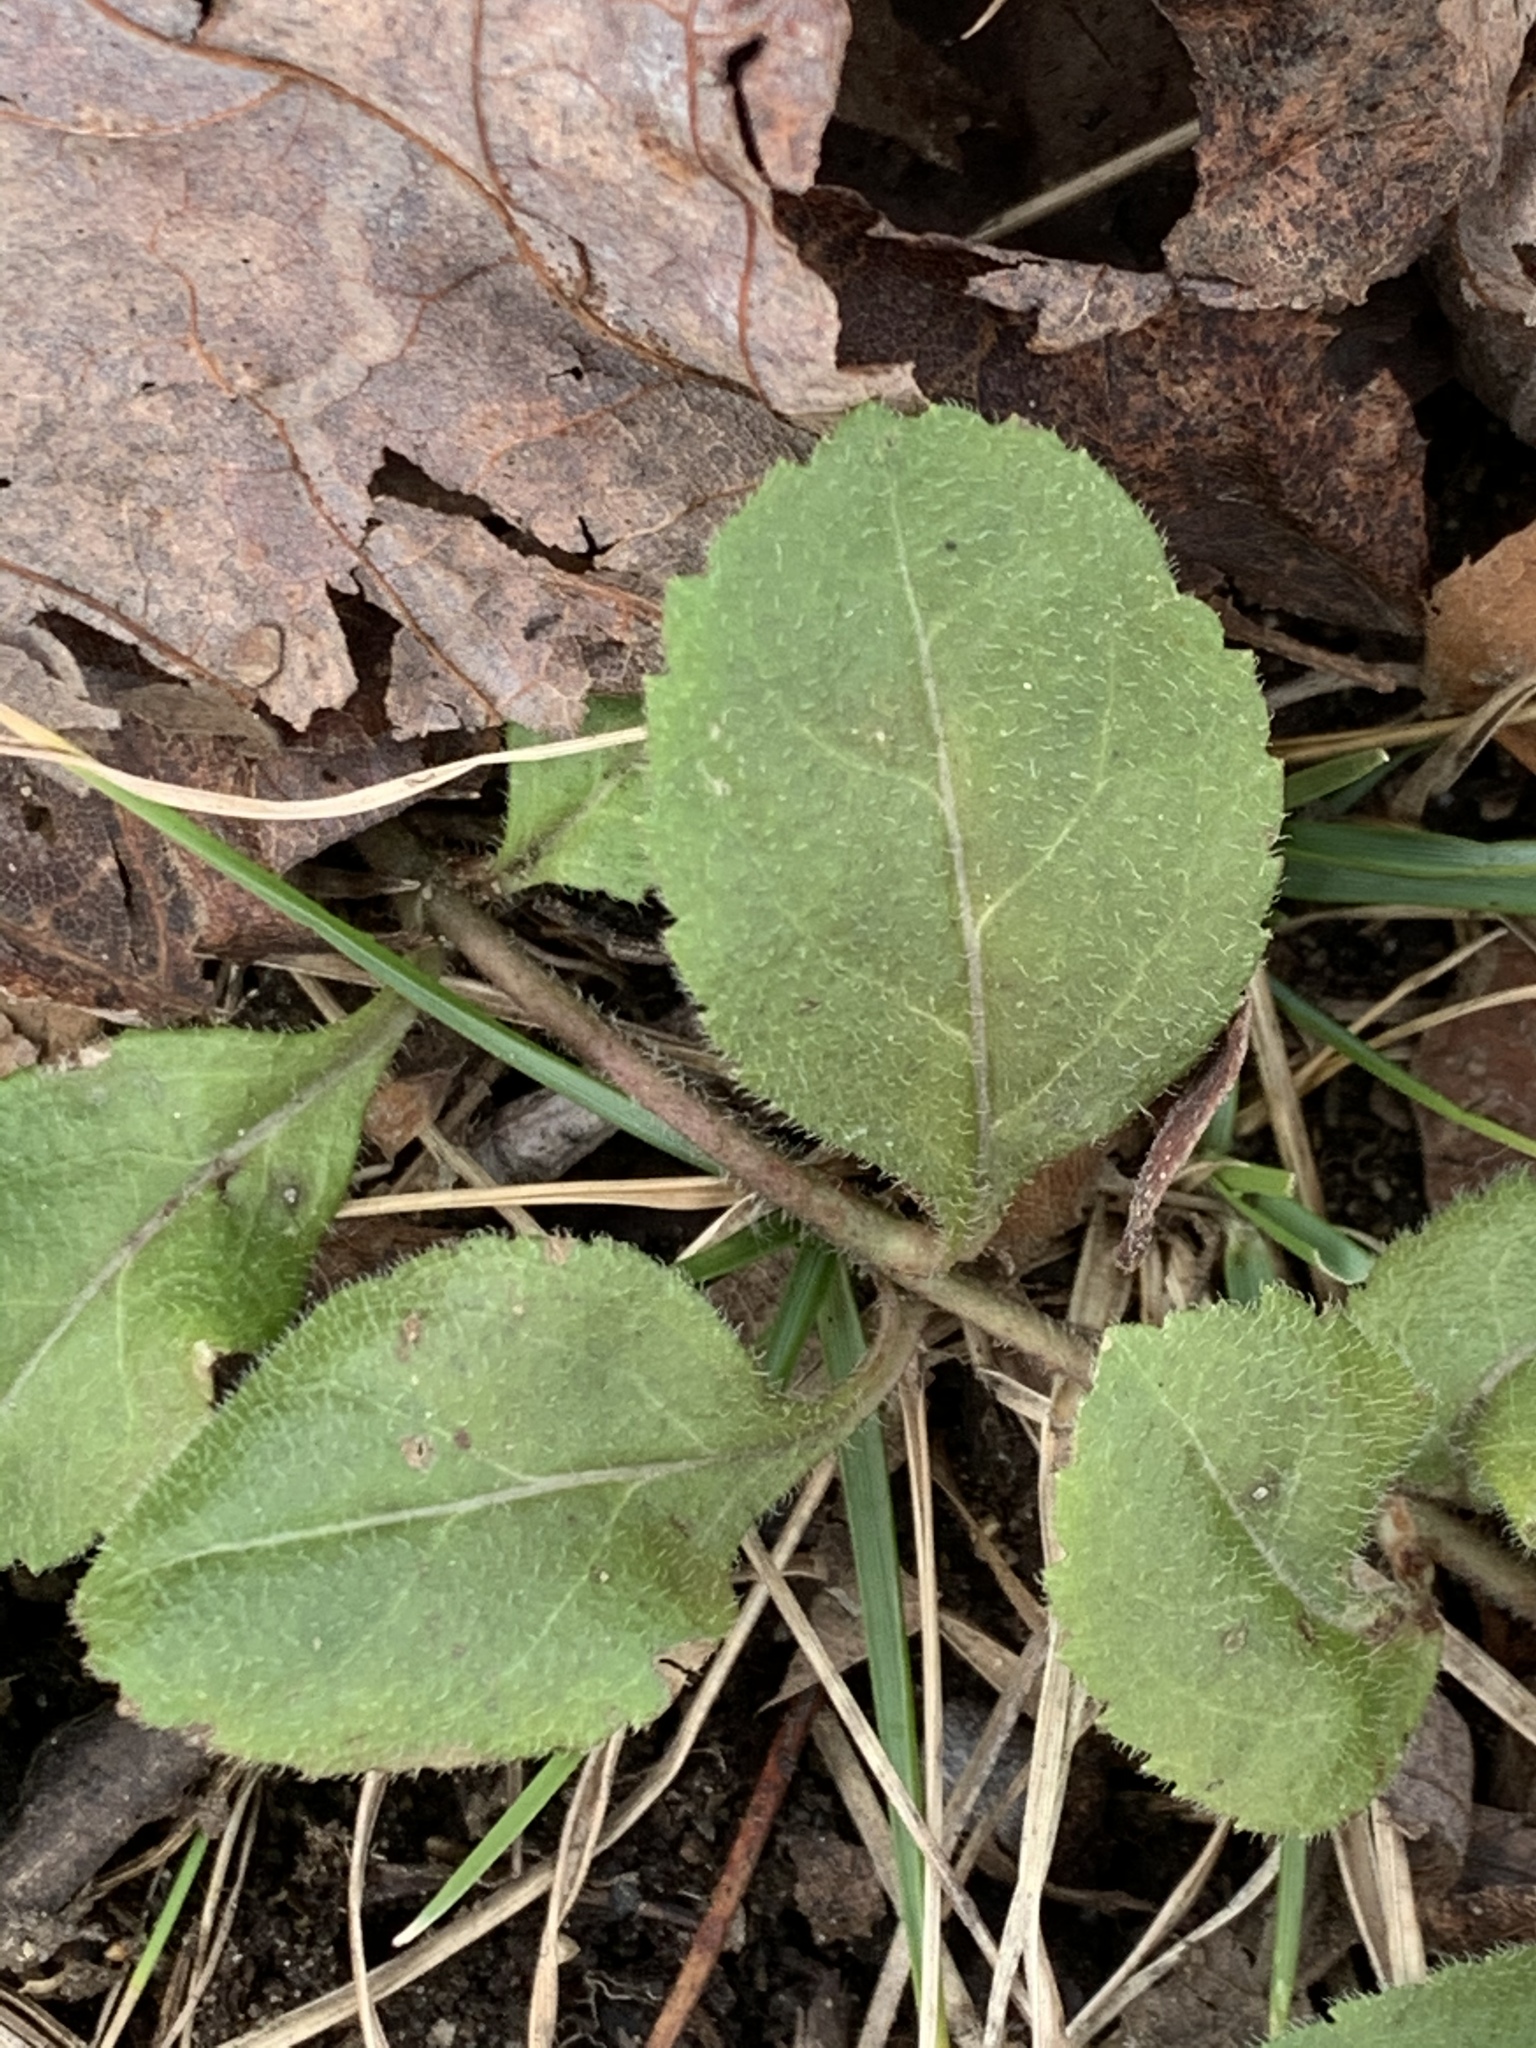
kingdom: Plantae
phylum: Tracheophyta
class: Magnoliopsida
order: Lamiales
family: Plantaginaceae
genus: Veronica
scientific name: Veronica officinalis
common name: Common speedwell
